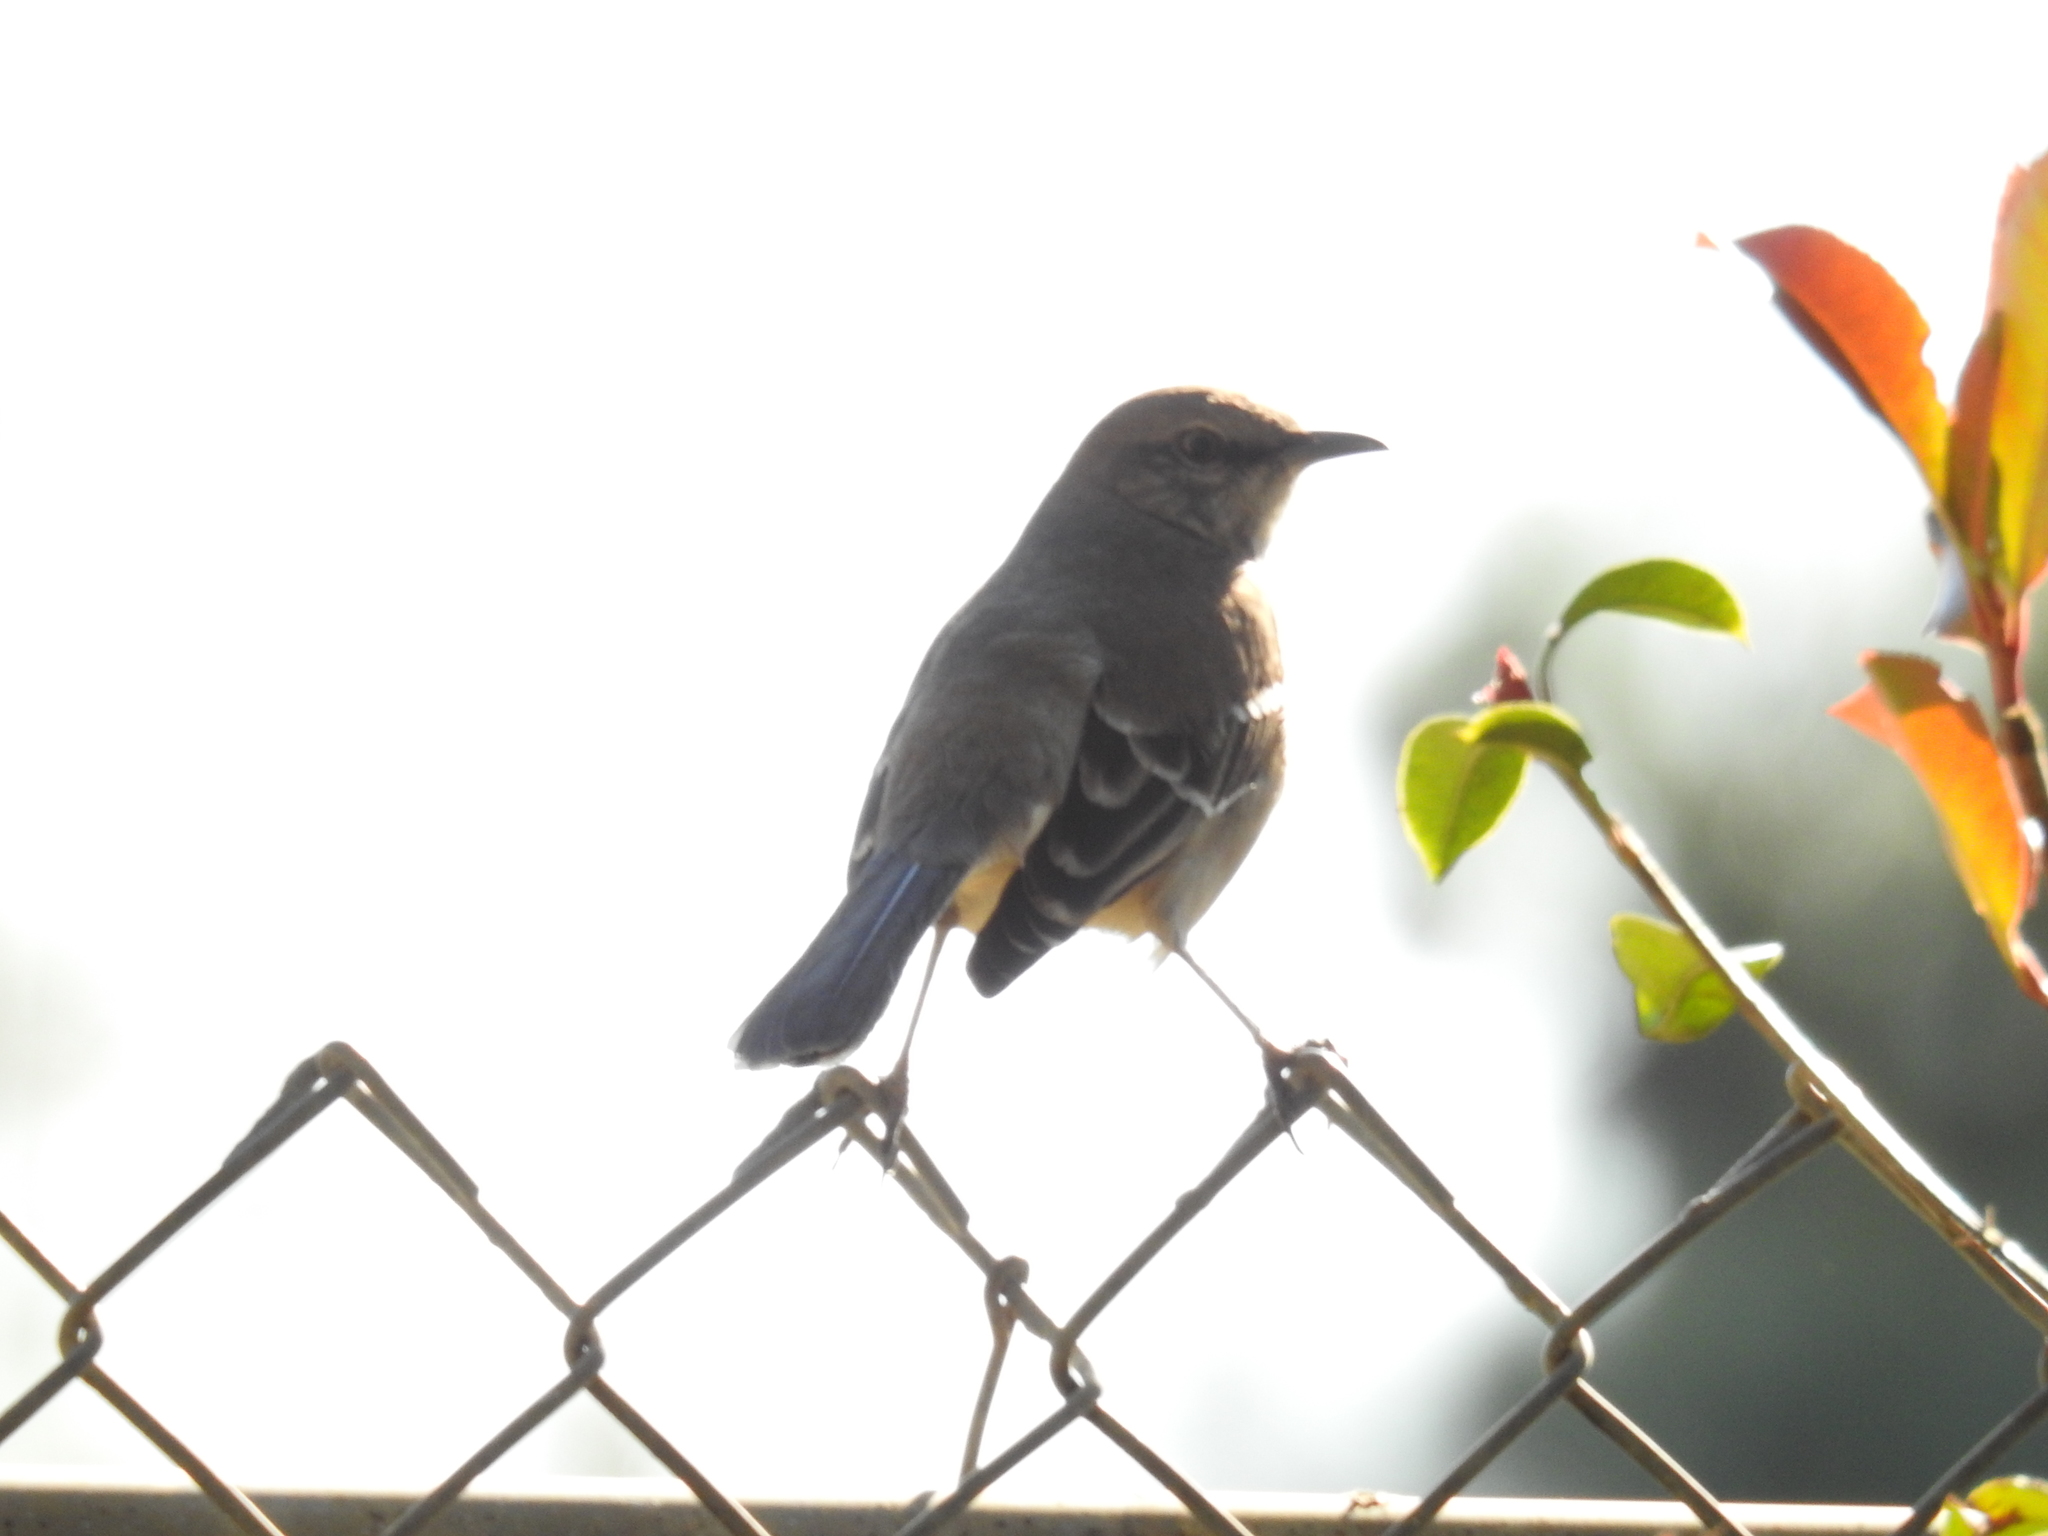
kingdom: Animalia
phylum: Chordata
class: Aves
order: Passeriformes
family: Mimidae
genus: Mimus
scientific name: Mimus polyglottos
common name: Northern mockingbird
